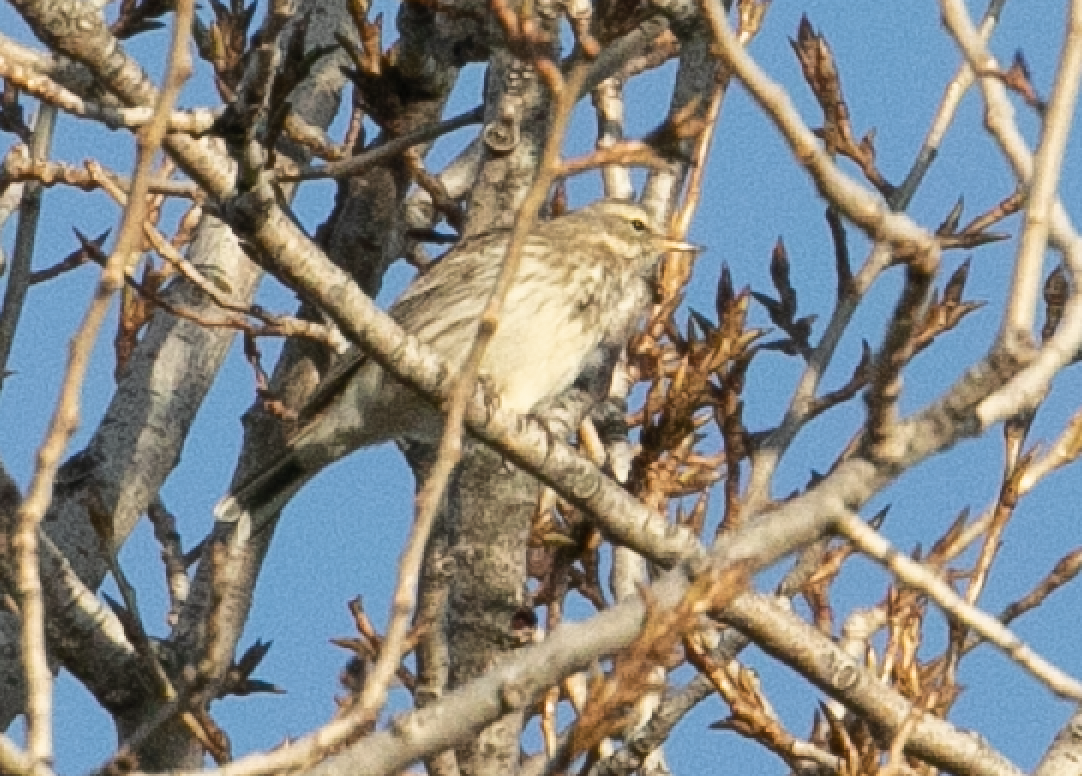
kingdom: Animalia
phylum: Chordata
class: Aves
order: Passeriformes
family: Motacillidae
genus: Anthus
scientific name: Anthus spinoletta
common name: Water pipit
